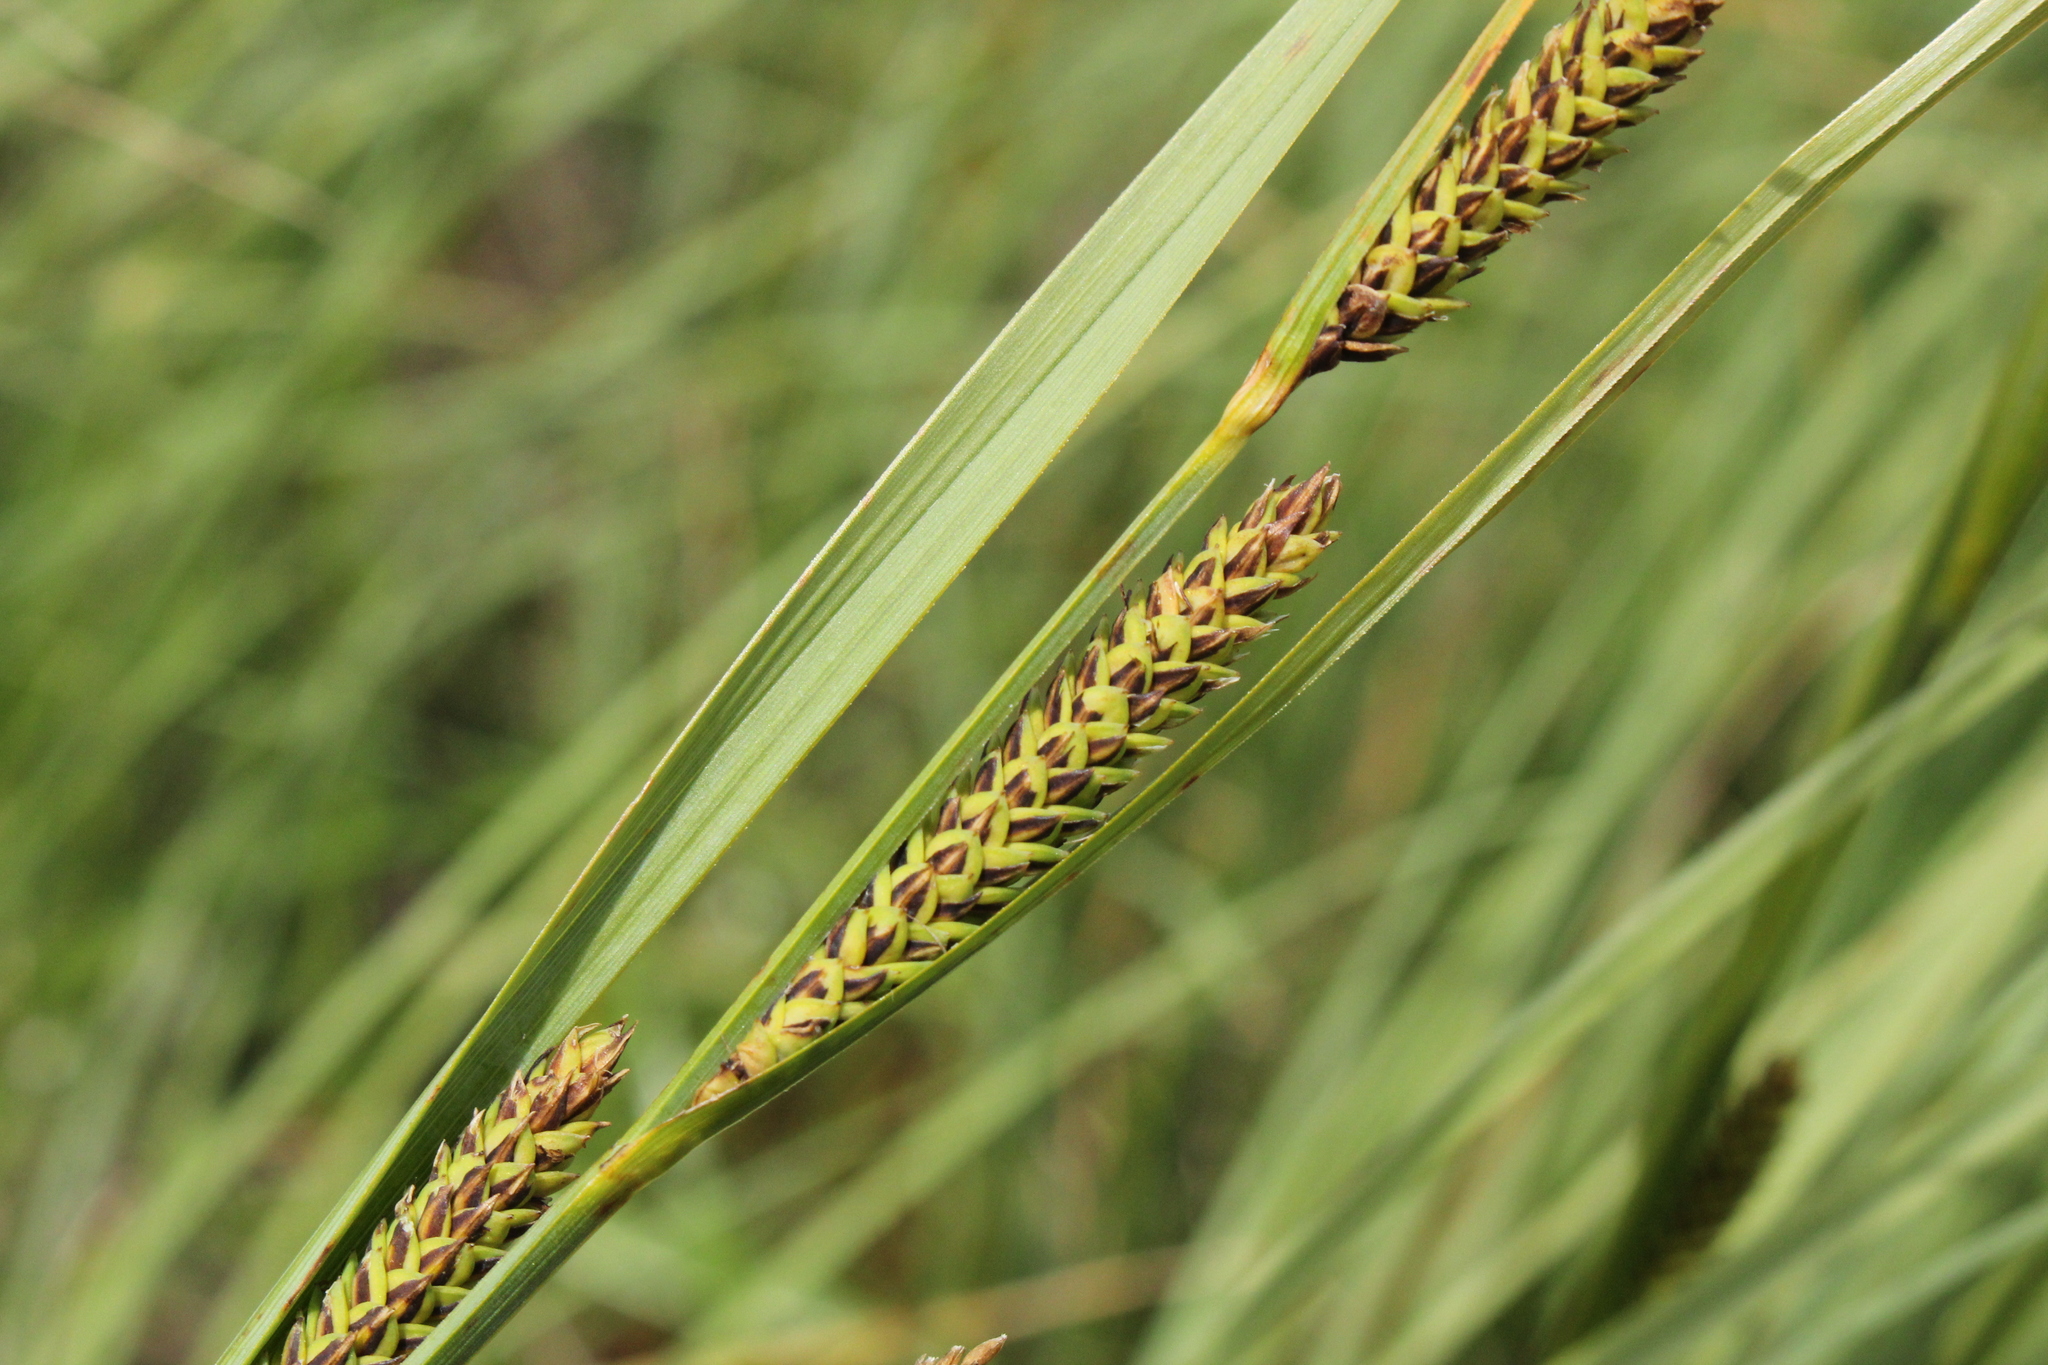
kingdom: Plantae
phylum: Tracheophyta
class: Liliopsida
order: Poales
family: Cyperaceae
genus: Carex
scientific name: Carex aquatilis
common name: Water sedge
